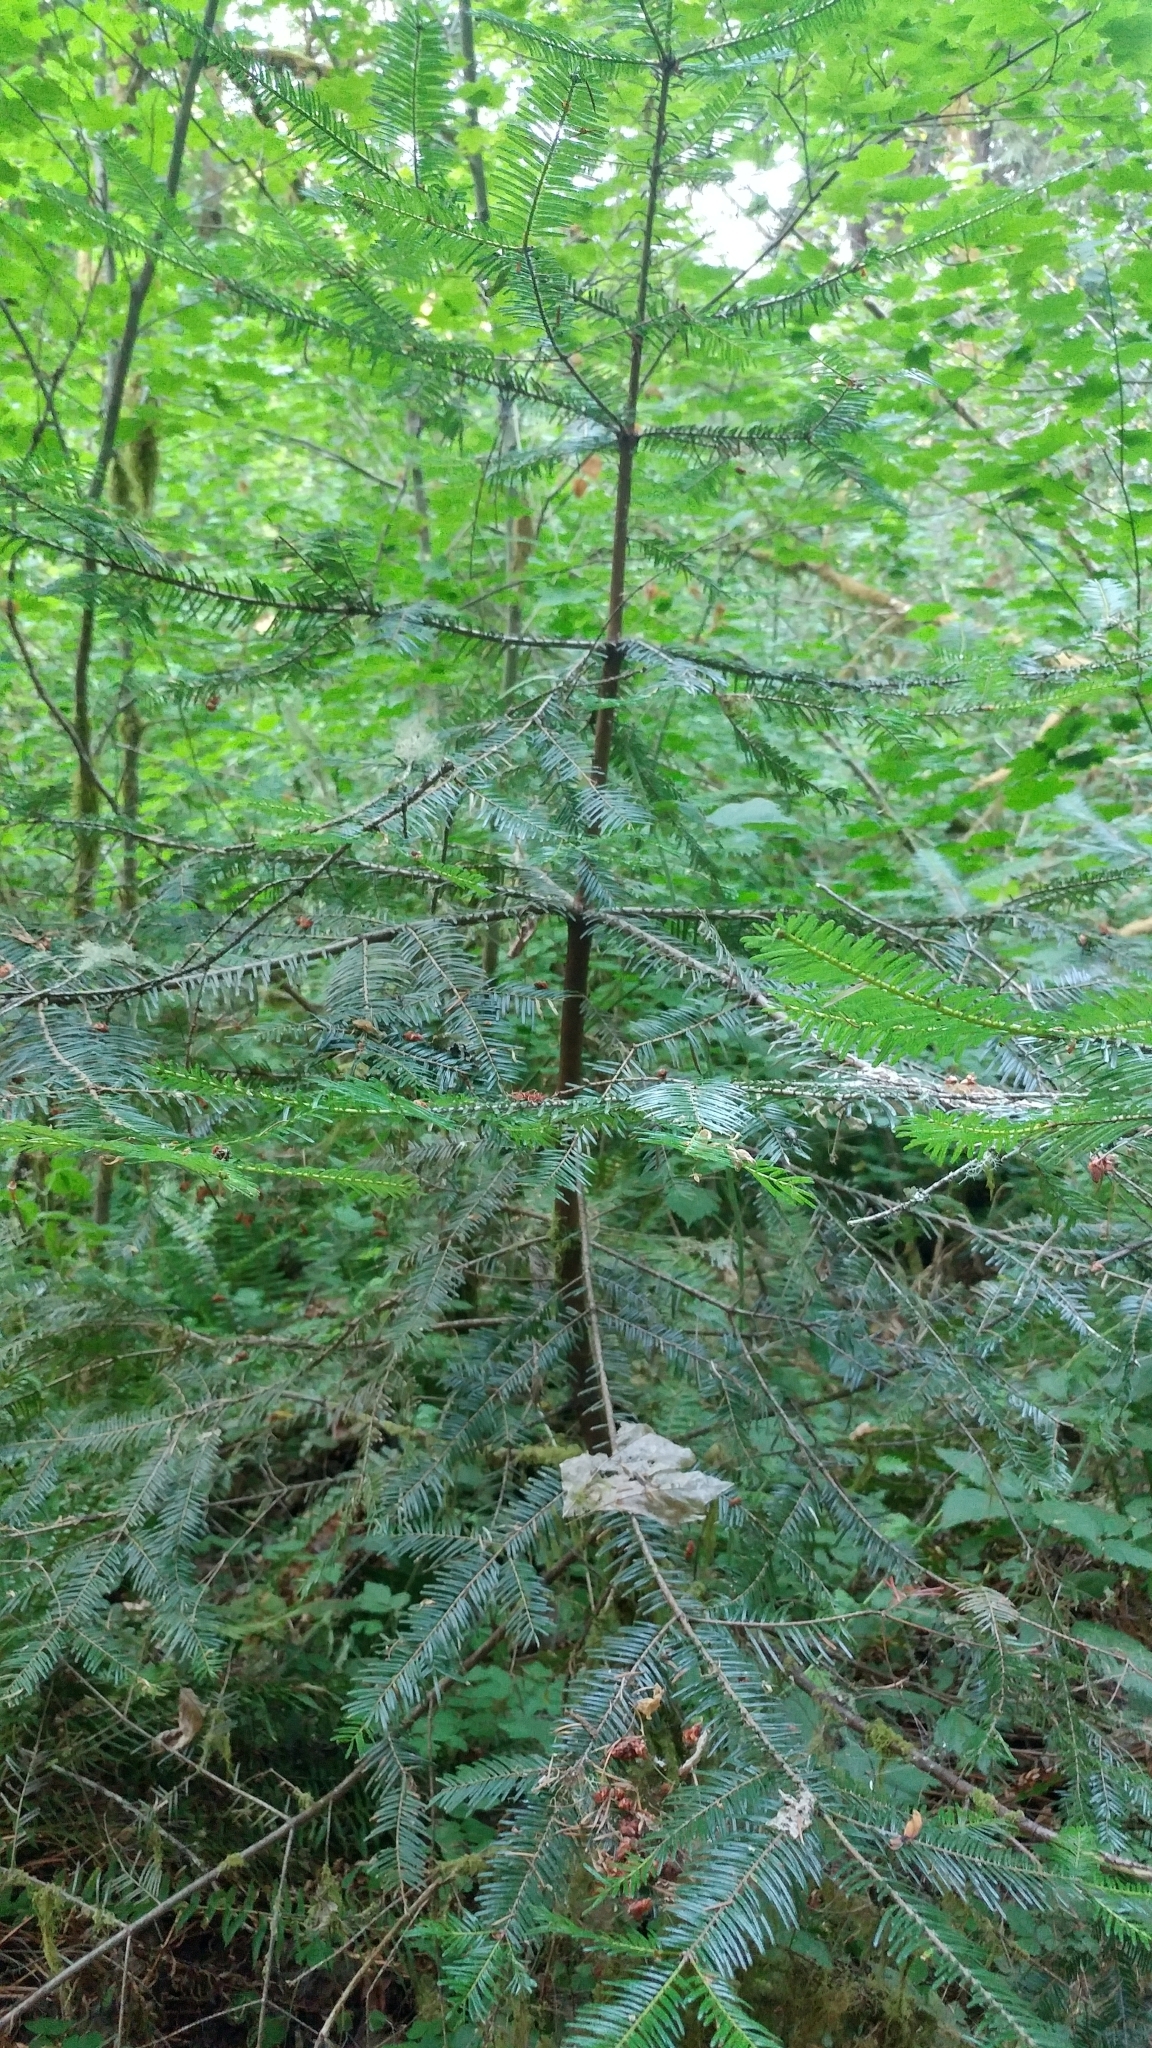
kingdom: Plantae
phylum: Tracheophyta
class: Pinopsida
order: Pinales
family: Pinaceae
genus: Abies
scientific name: Abies grandis
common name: Giant fir
